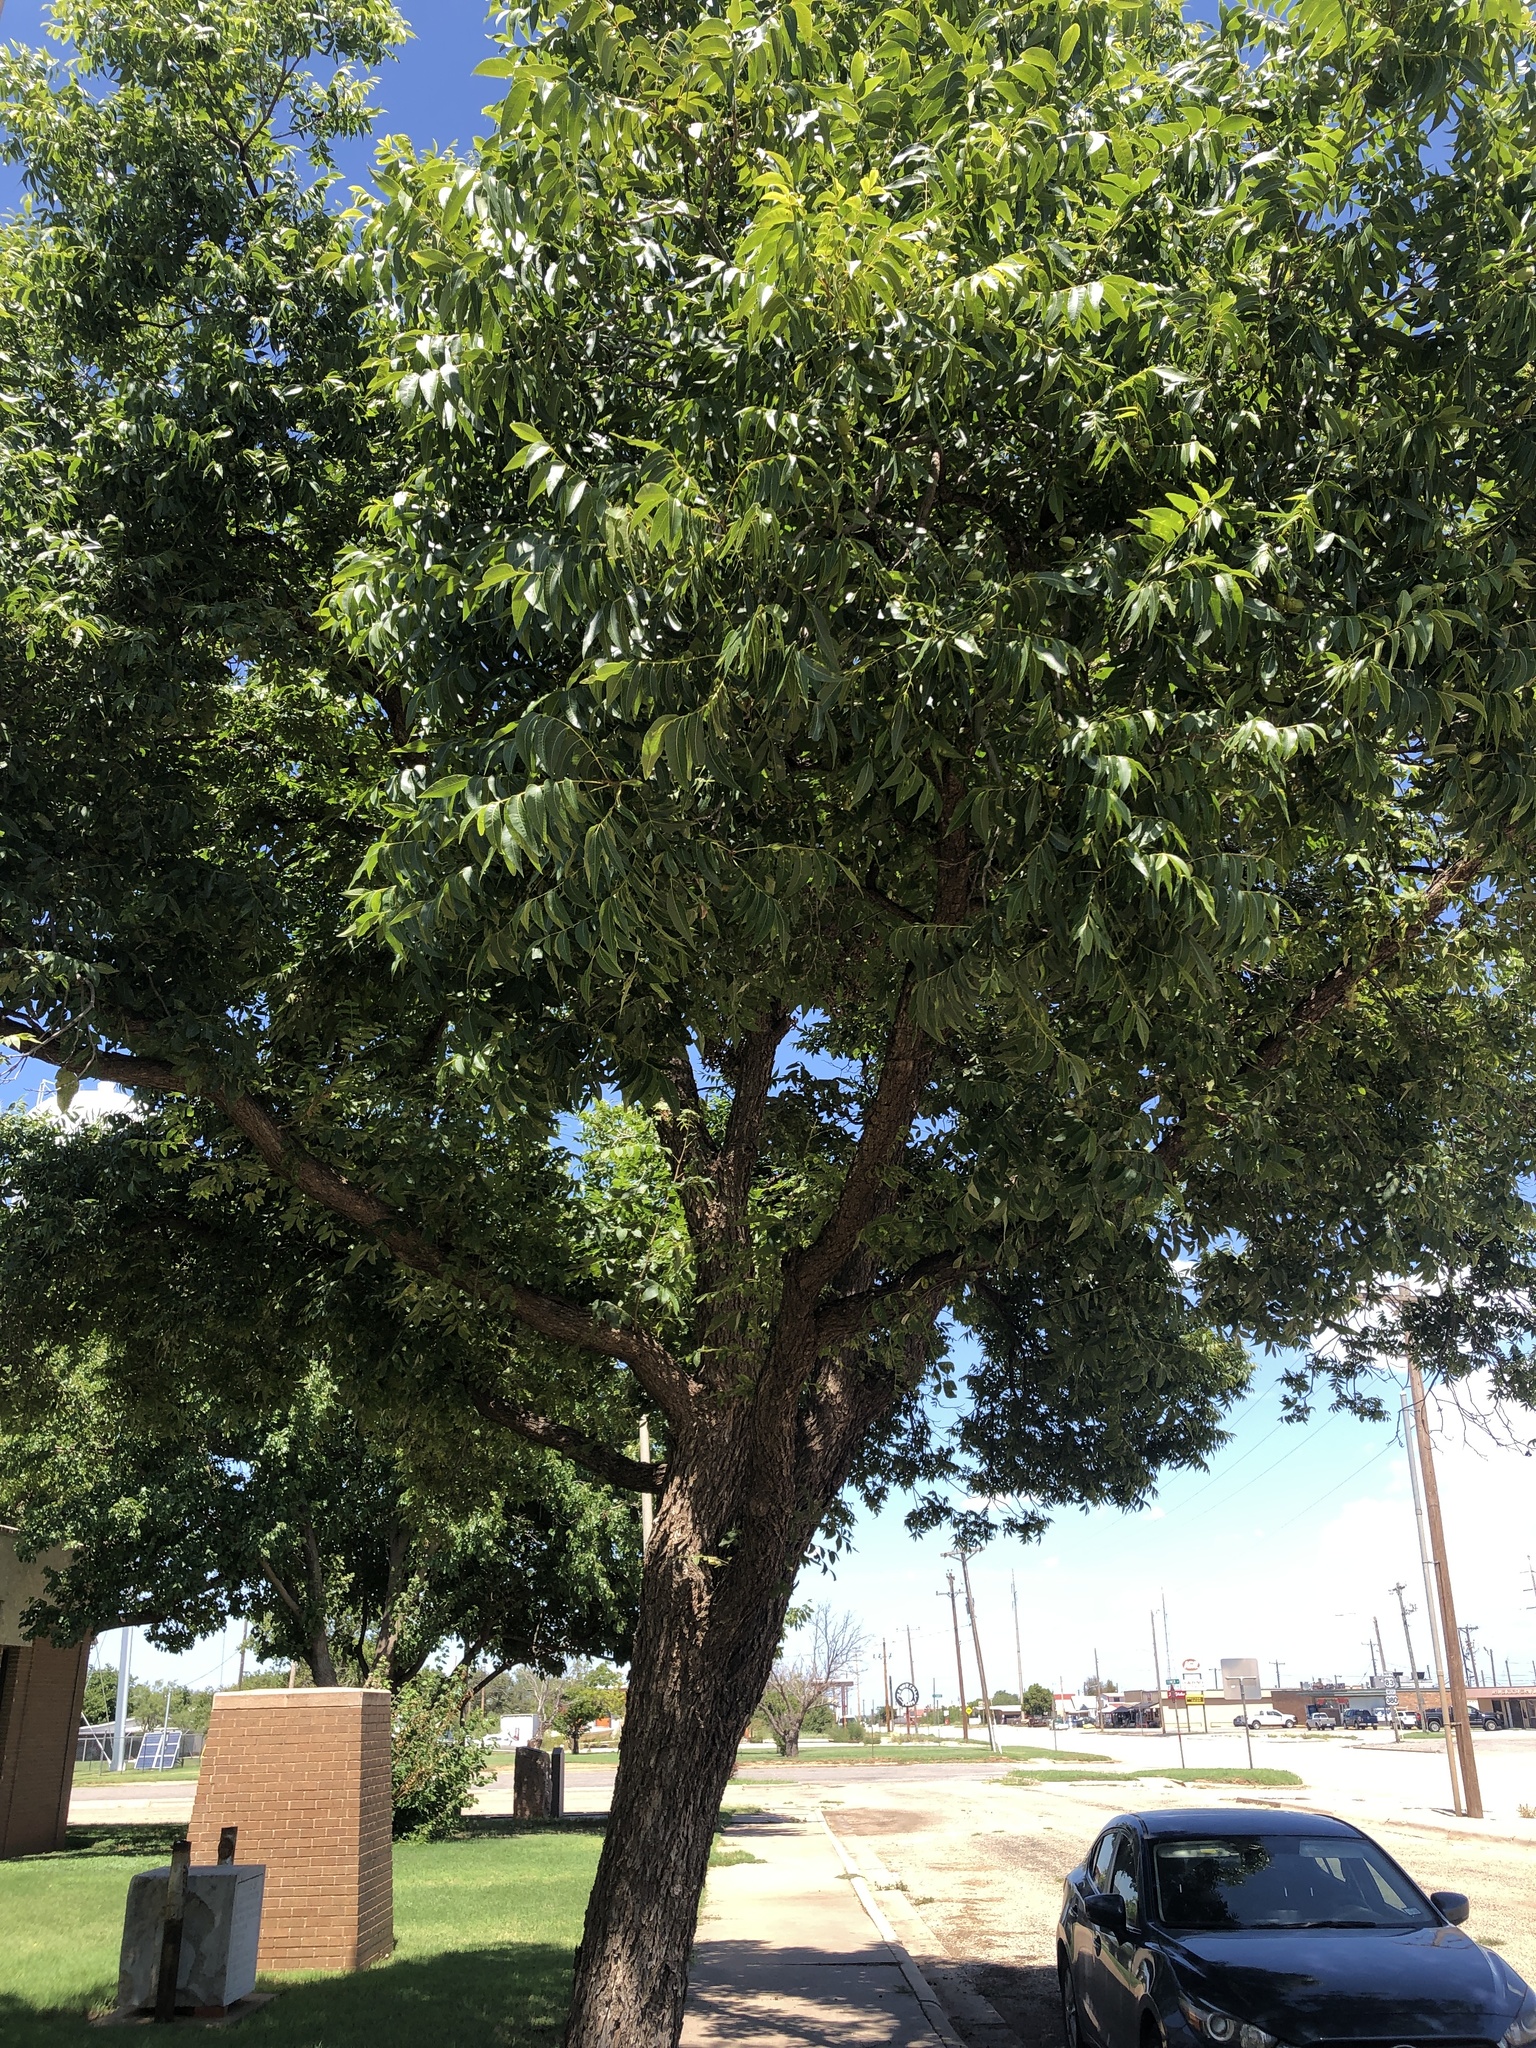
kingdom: Plantae
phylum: Tracheophyta
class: Magnoliopsida
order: Fagales
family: Juglandaceae
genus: Carya
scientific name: Carya illinoinensis
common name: Pecan
